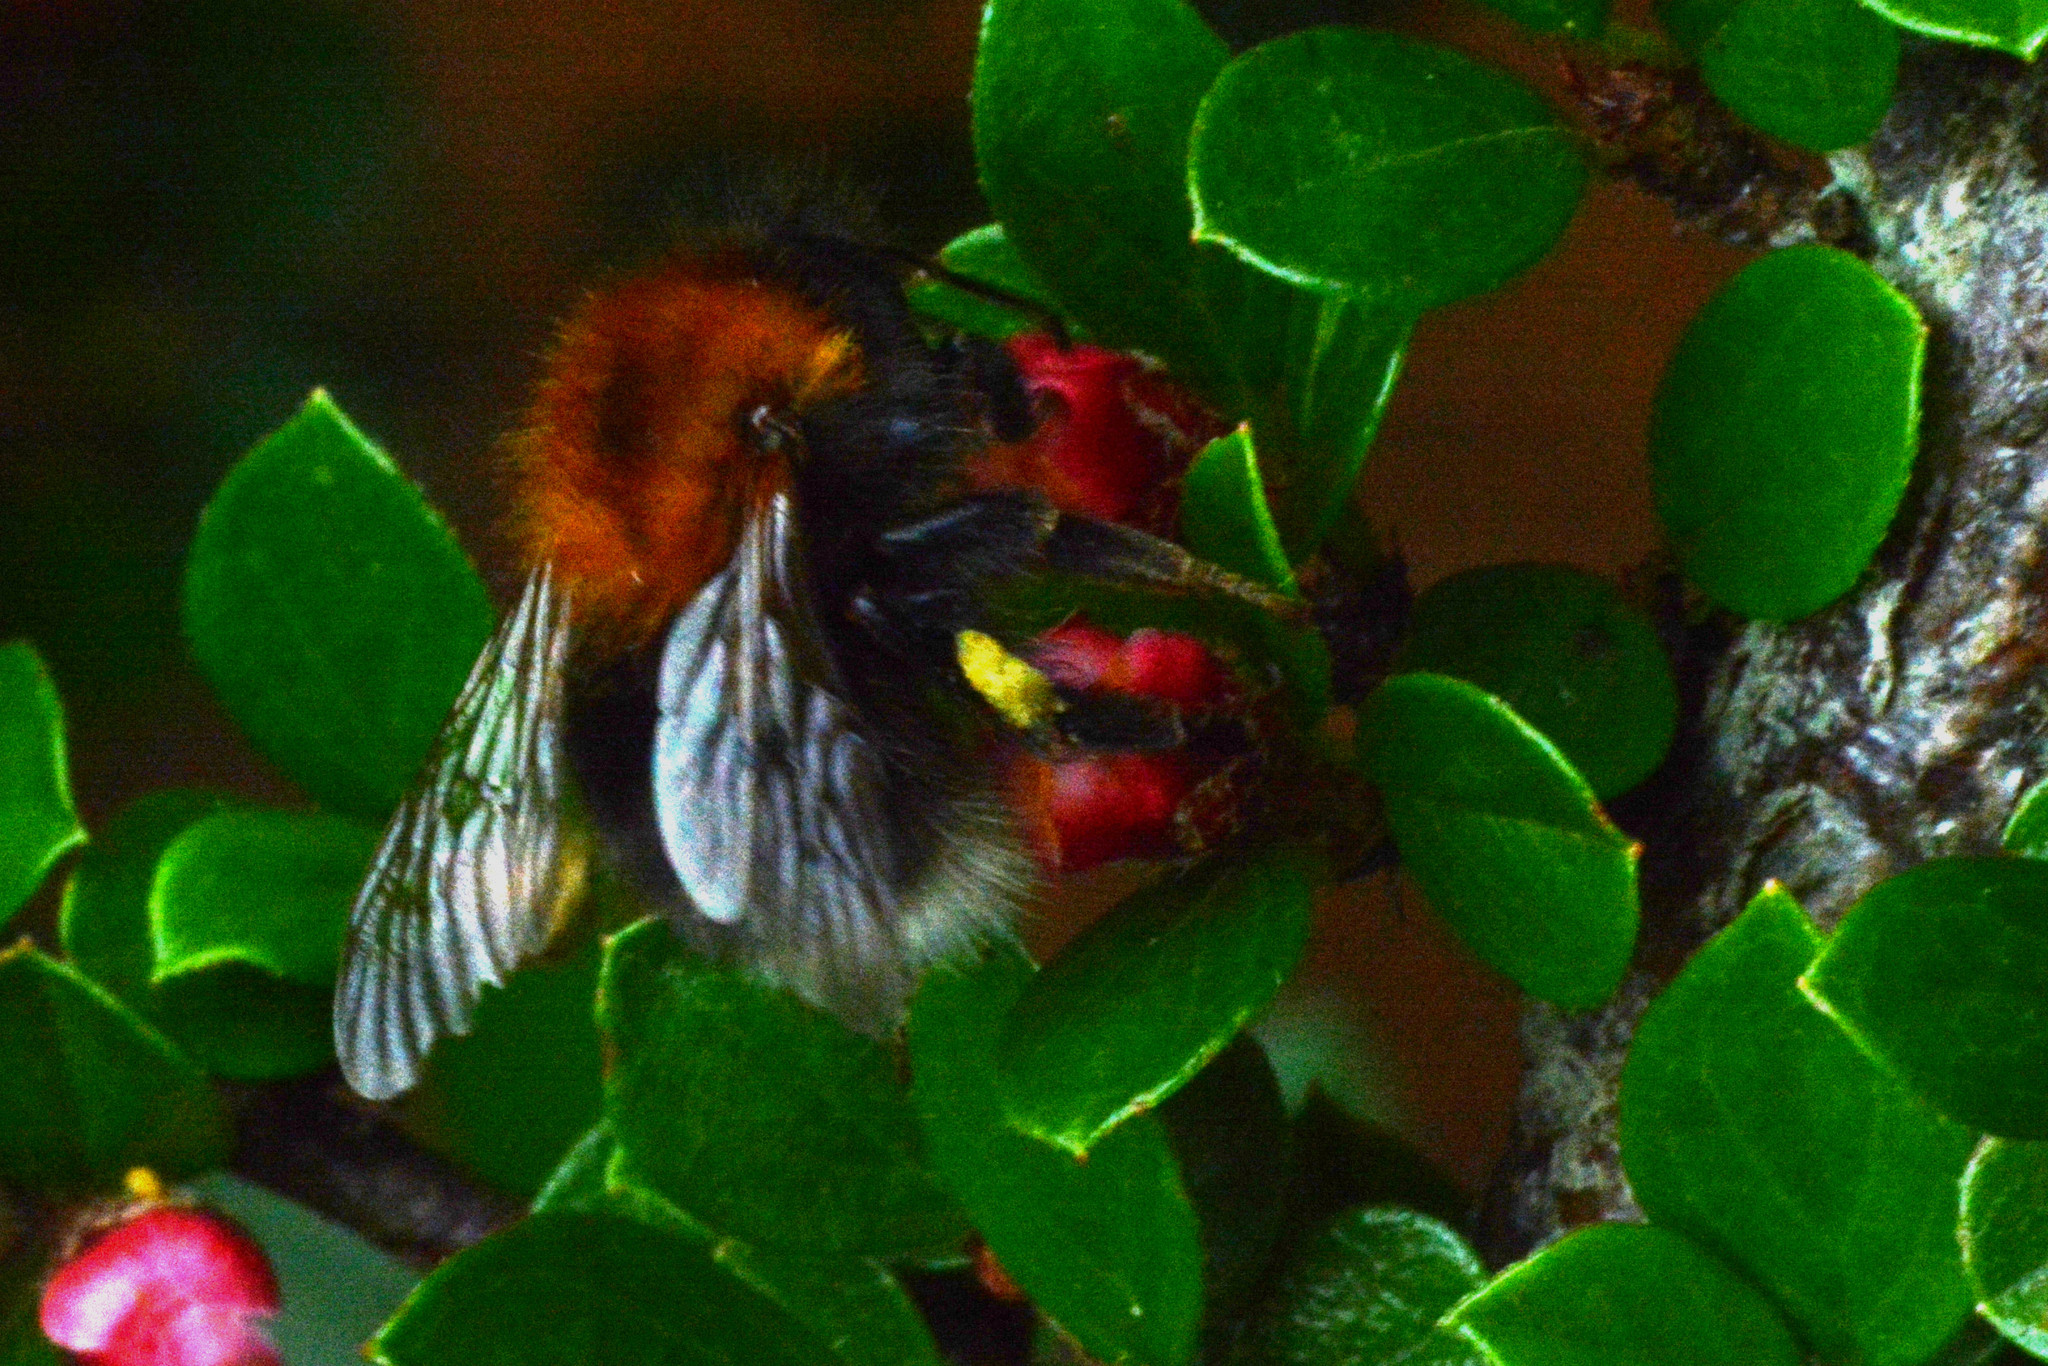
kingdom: Animalia
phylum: Arthropoda
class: Insecta
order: Hymenoptera
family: Apidae
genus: Bombus
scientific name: Bombus hypnorum
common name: New garden bumblebee
